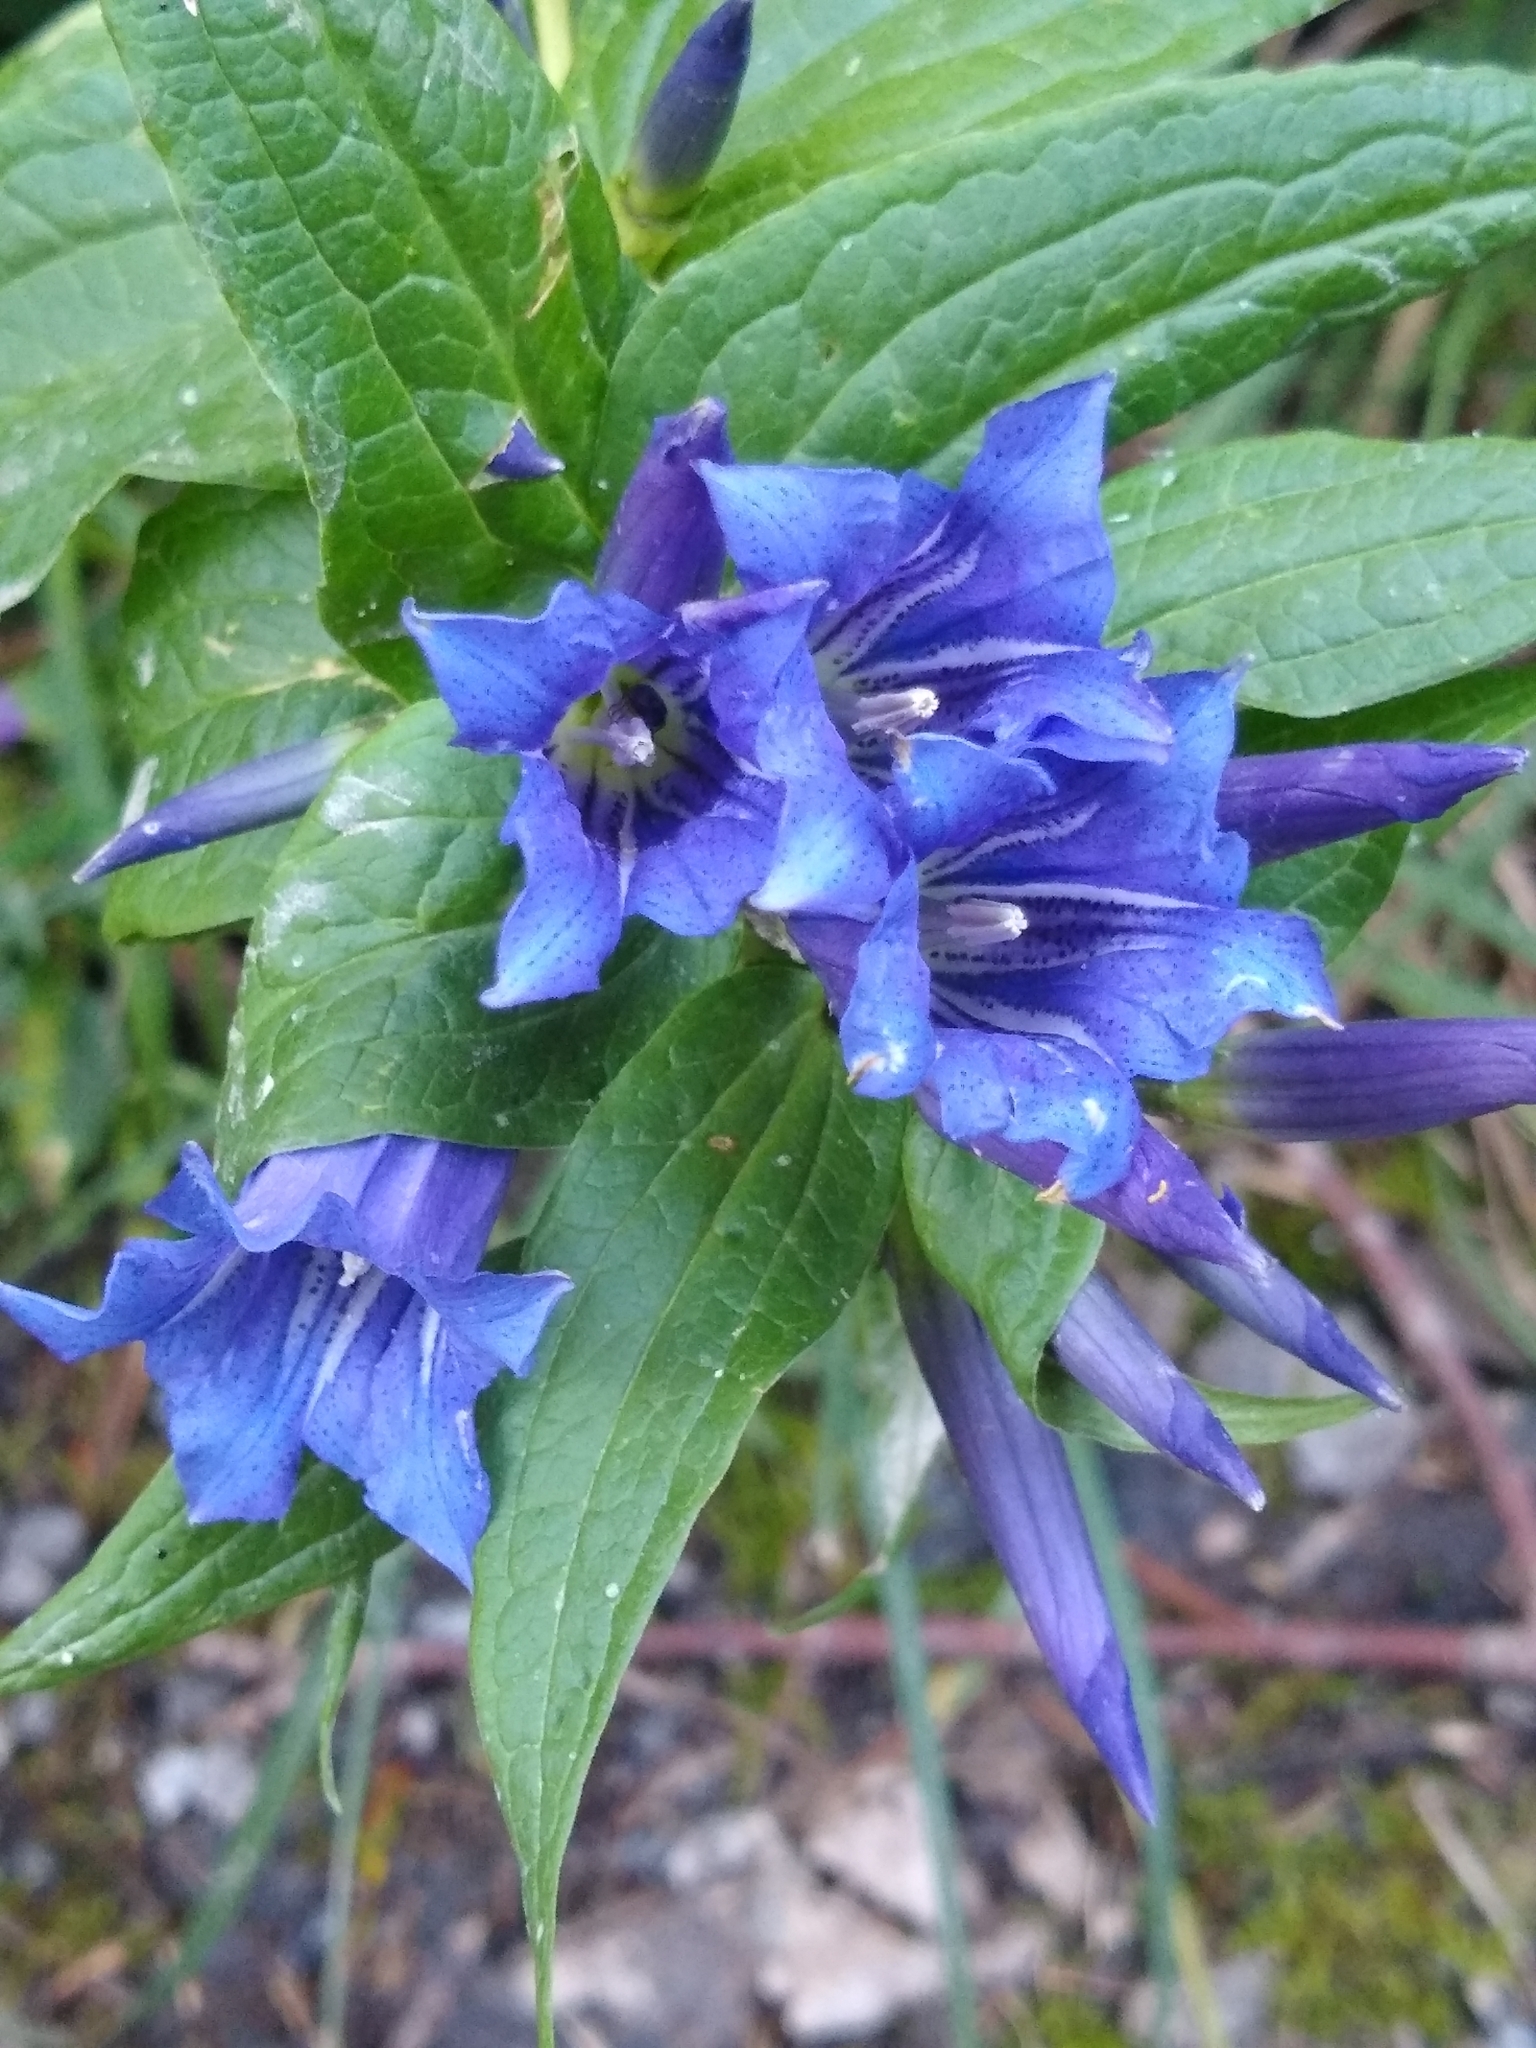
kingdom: Plantae
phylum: Tracheophyta
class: Magnoliopsida
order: Gentianales
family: Gentianaceae
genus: Gentiana
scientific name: Gentiana asclepiadea
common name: Willow gentian
